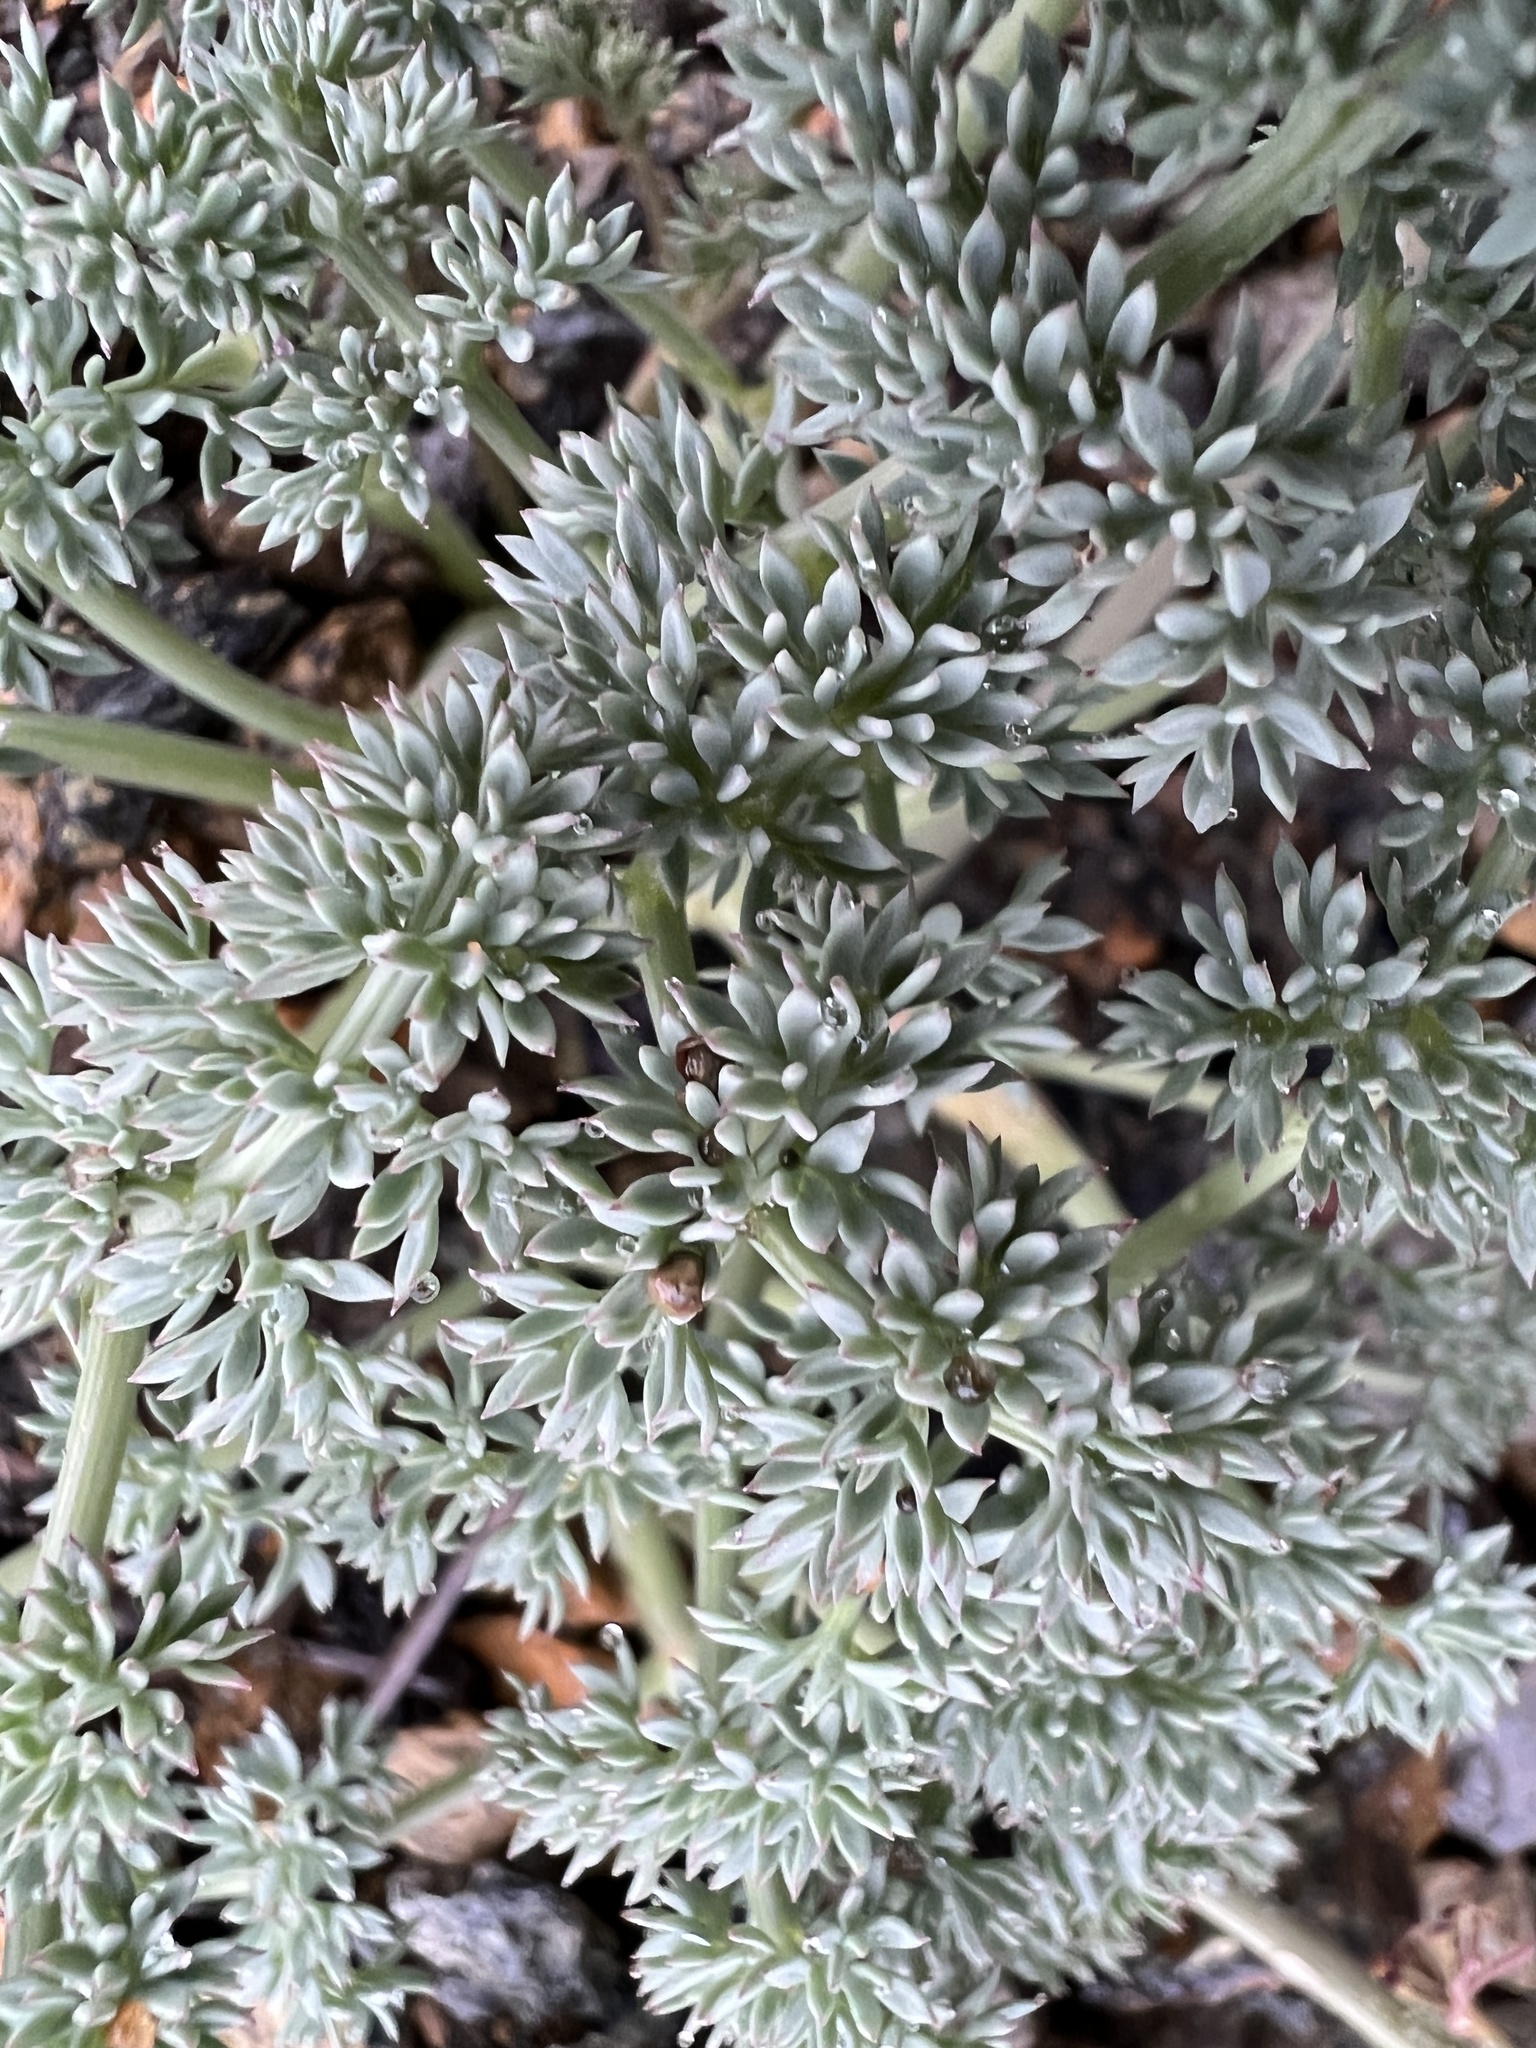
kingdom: Plantae
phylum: Tracheophyta
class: Magnoliopsida
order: Apiales
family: Apiaceae
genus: Lomatium
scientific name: Lomatium cuspidatum
